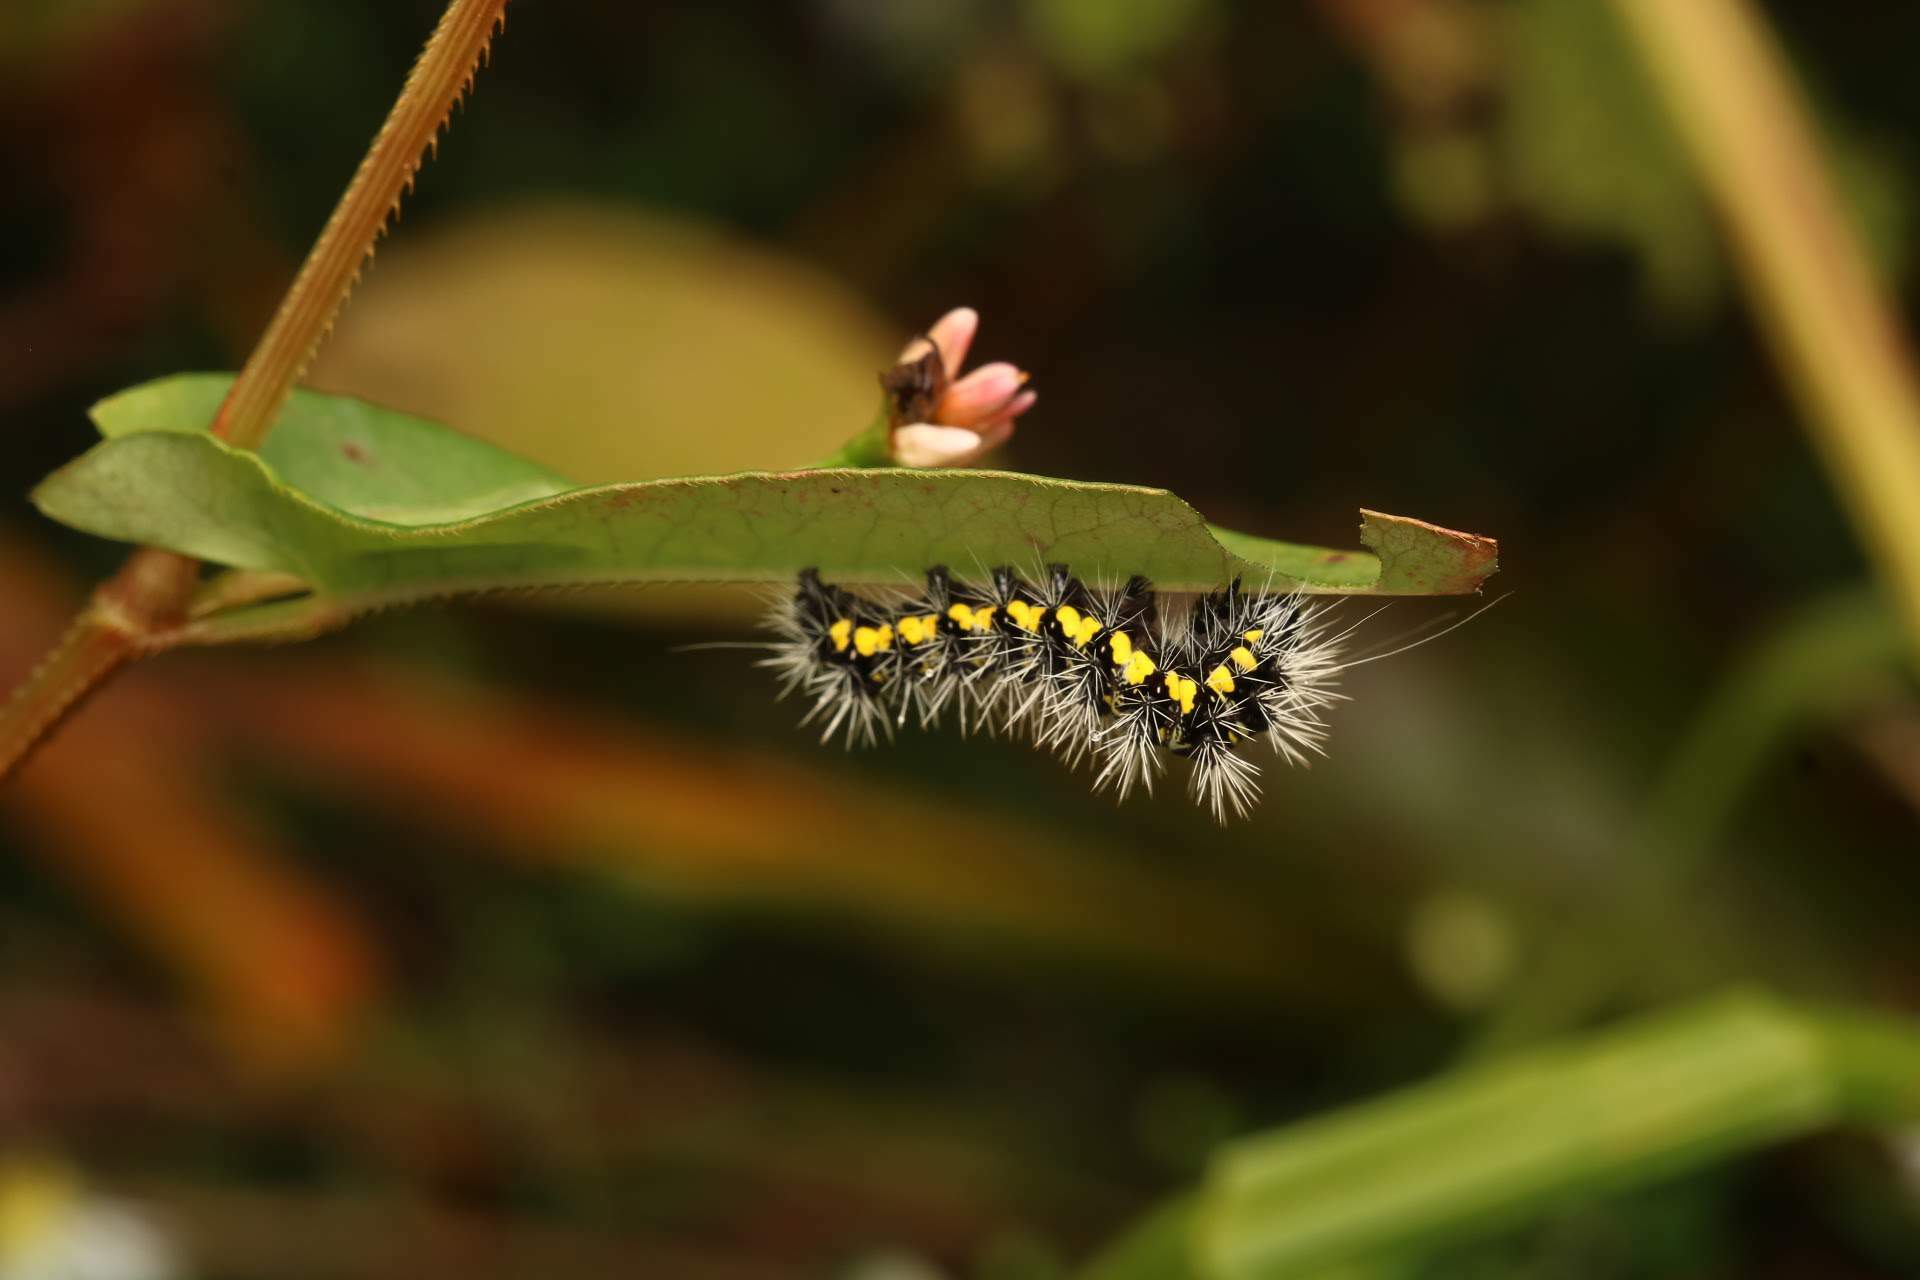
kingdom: Animalia
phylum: Arthropoda
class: Insecta
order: Lepidoptera
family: Noctuidae
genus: Acronicta
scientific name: Acronicta oblinita
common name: Smeared dagger
